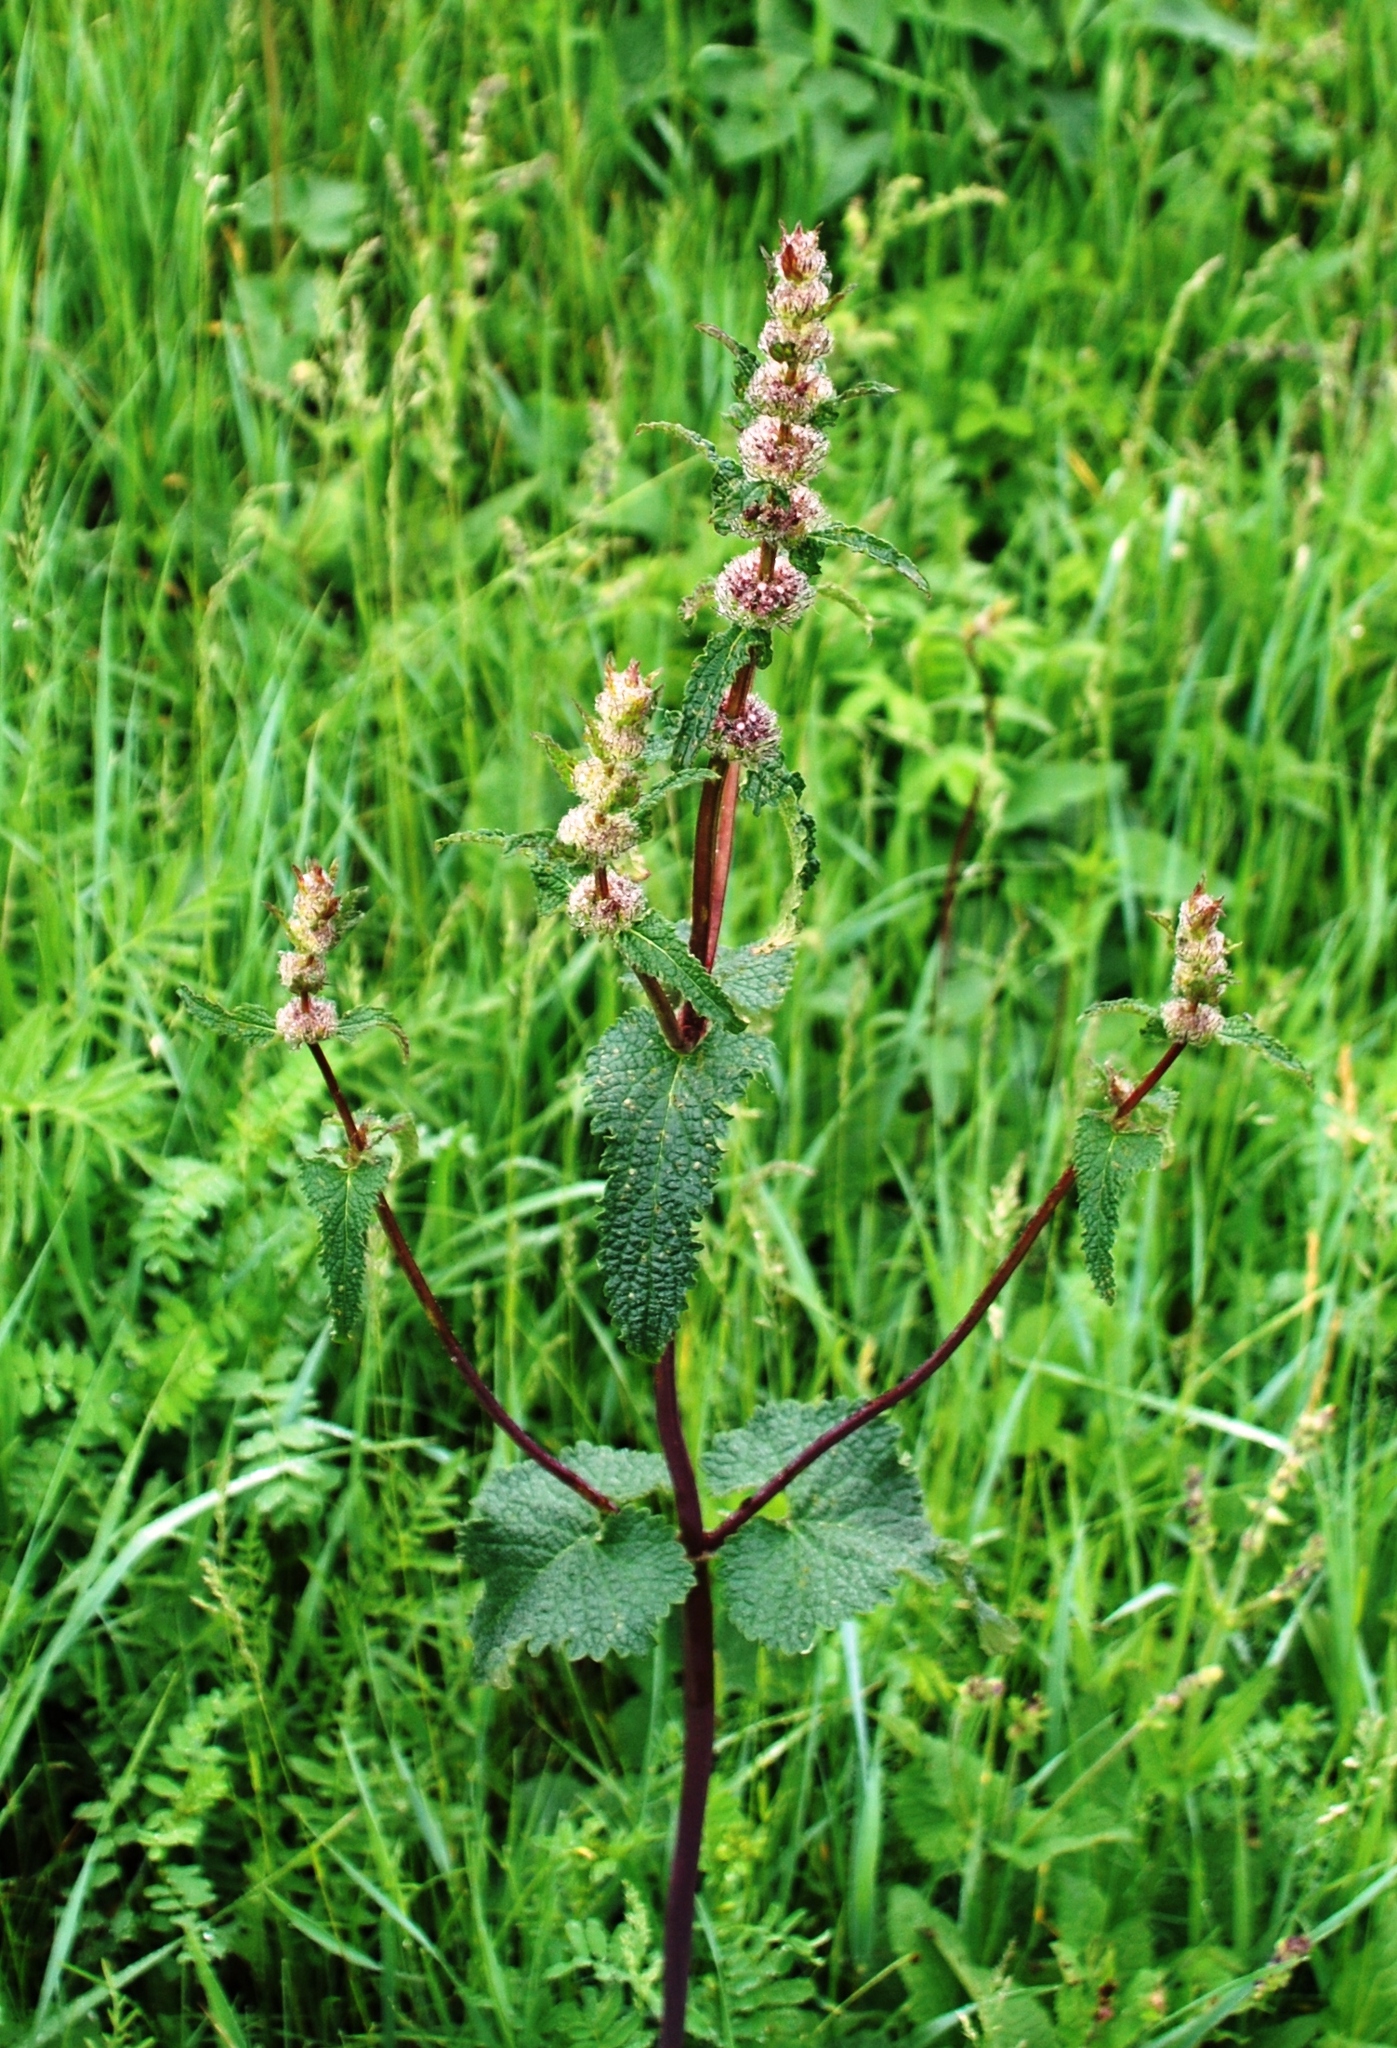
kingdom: Plantae
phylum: Tracheophyta
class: Magnoliopsida
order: Lamiales
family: Lamiaceae
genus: Phlomoides
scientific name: Phlomoides tuberosa
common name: Tuberous jerusalem sage
